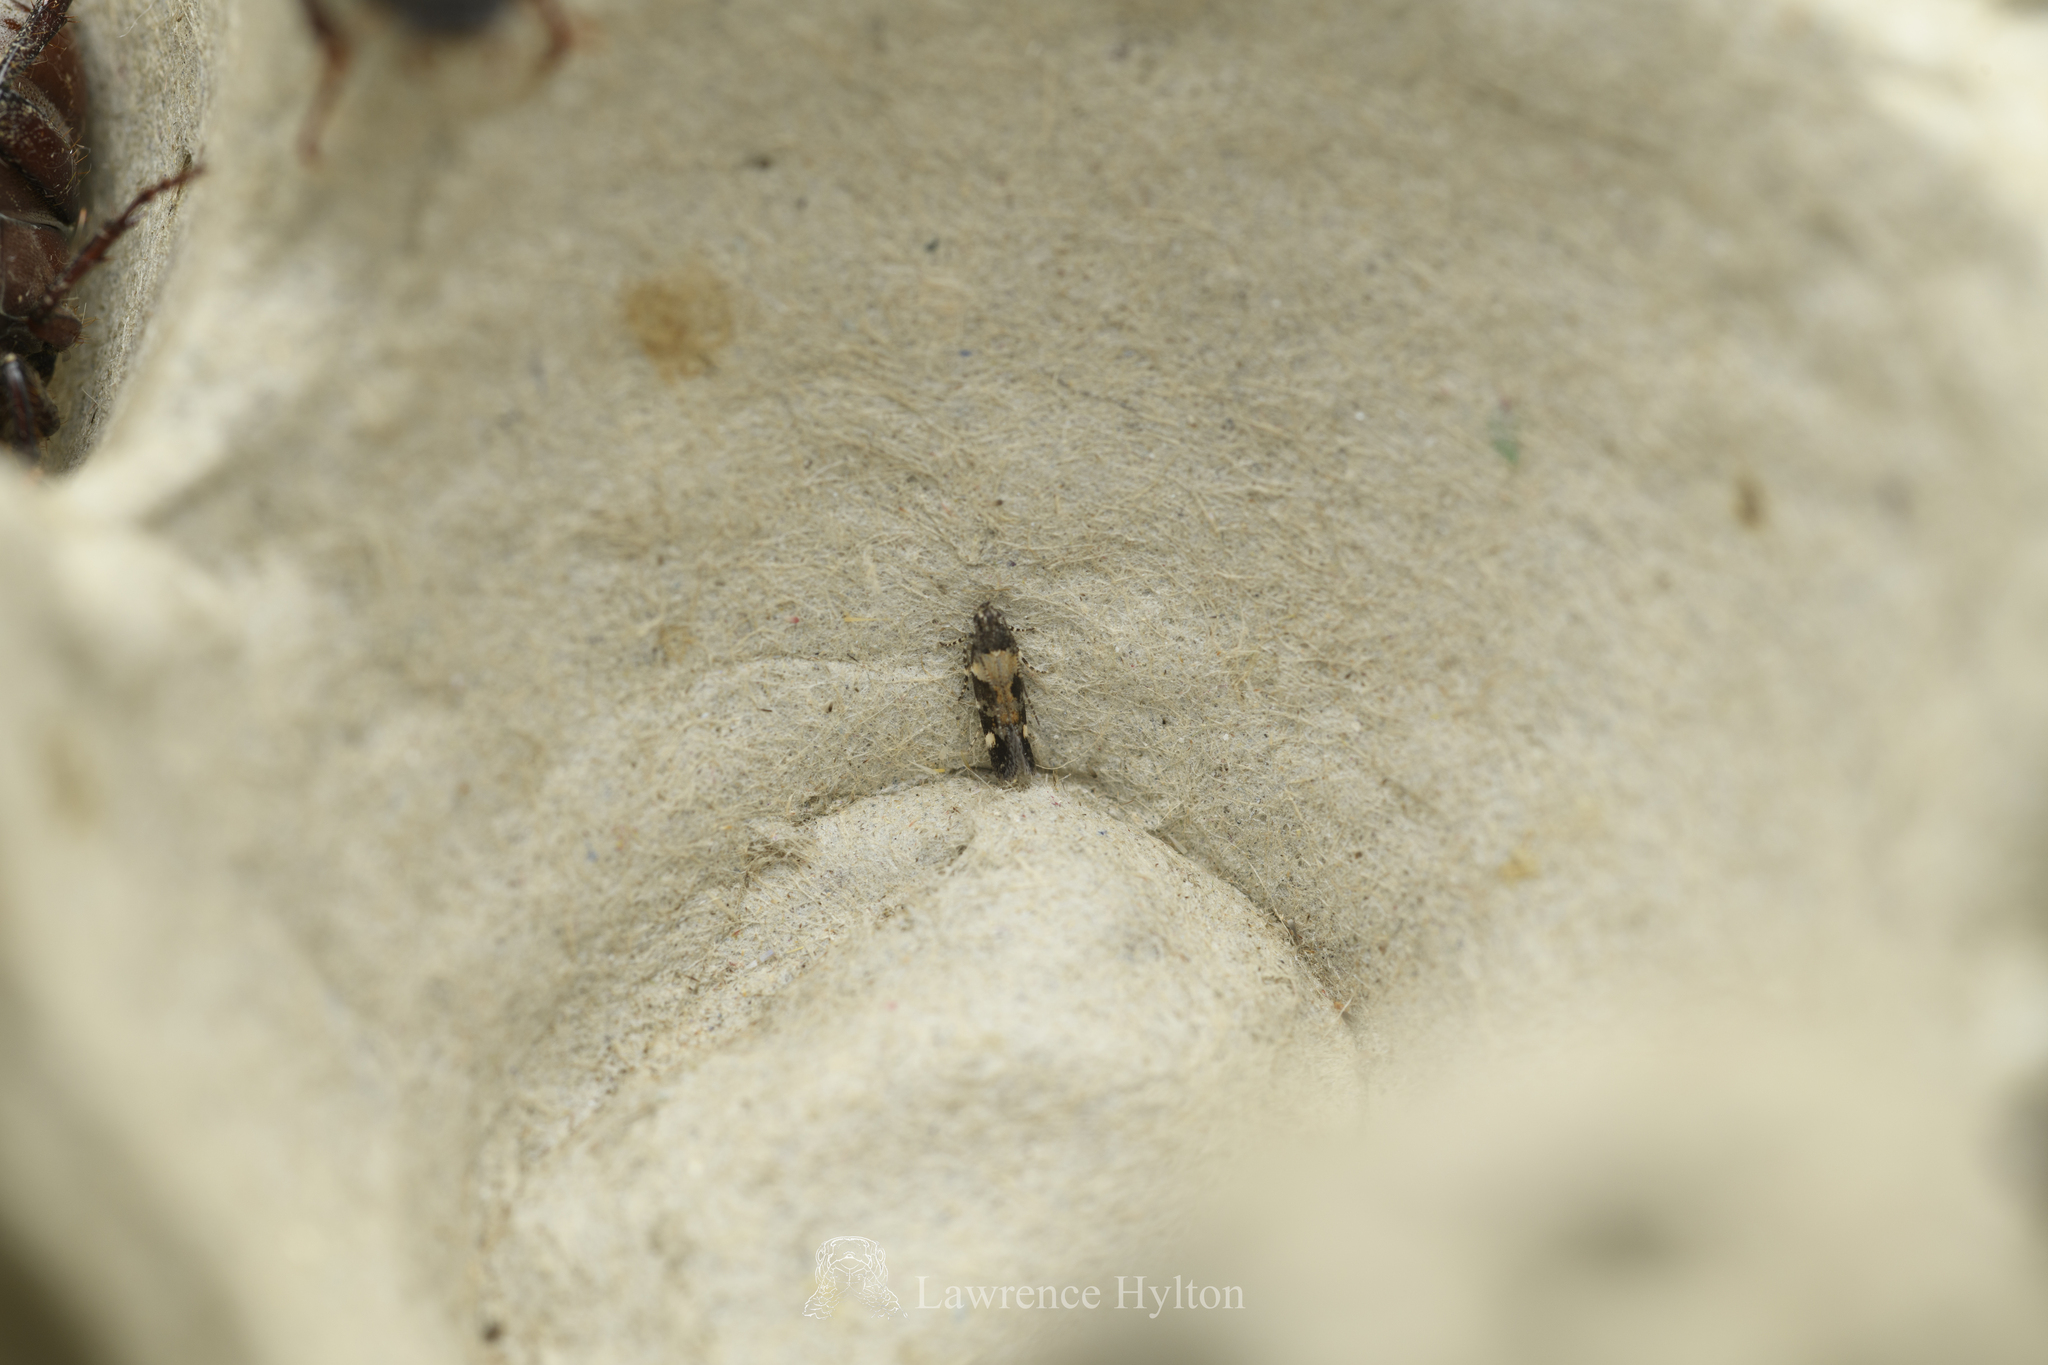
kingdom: Animalia
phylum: Arthropoda
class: Insecta
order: Lepidoptera
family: Gelechiidae
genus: Stegasta
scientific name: Stegasta
